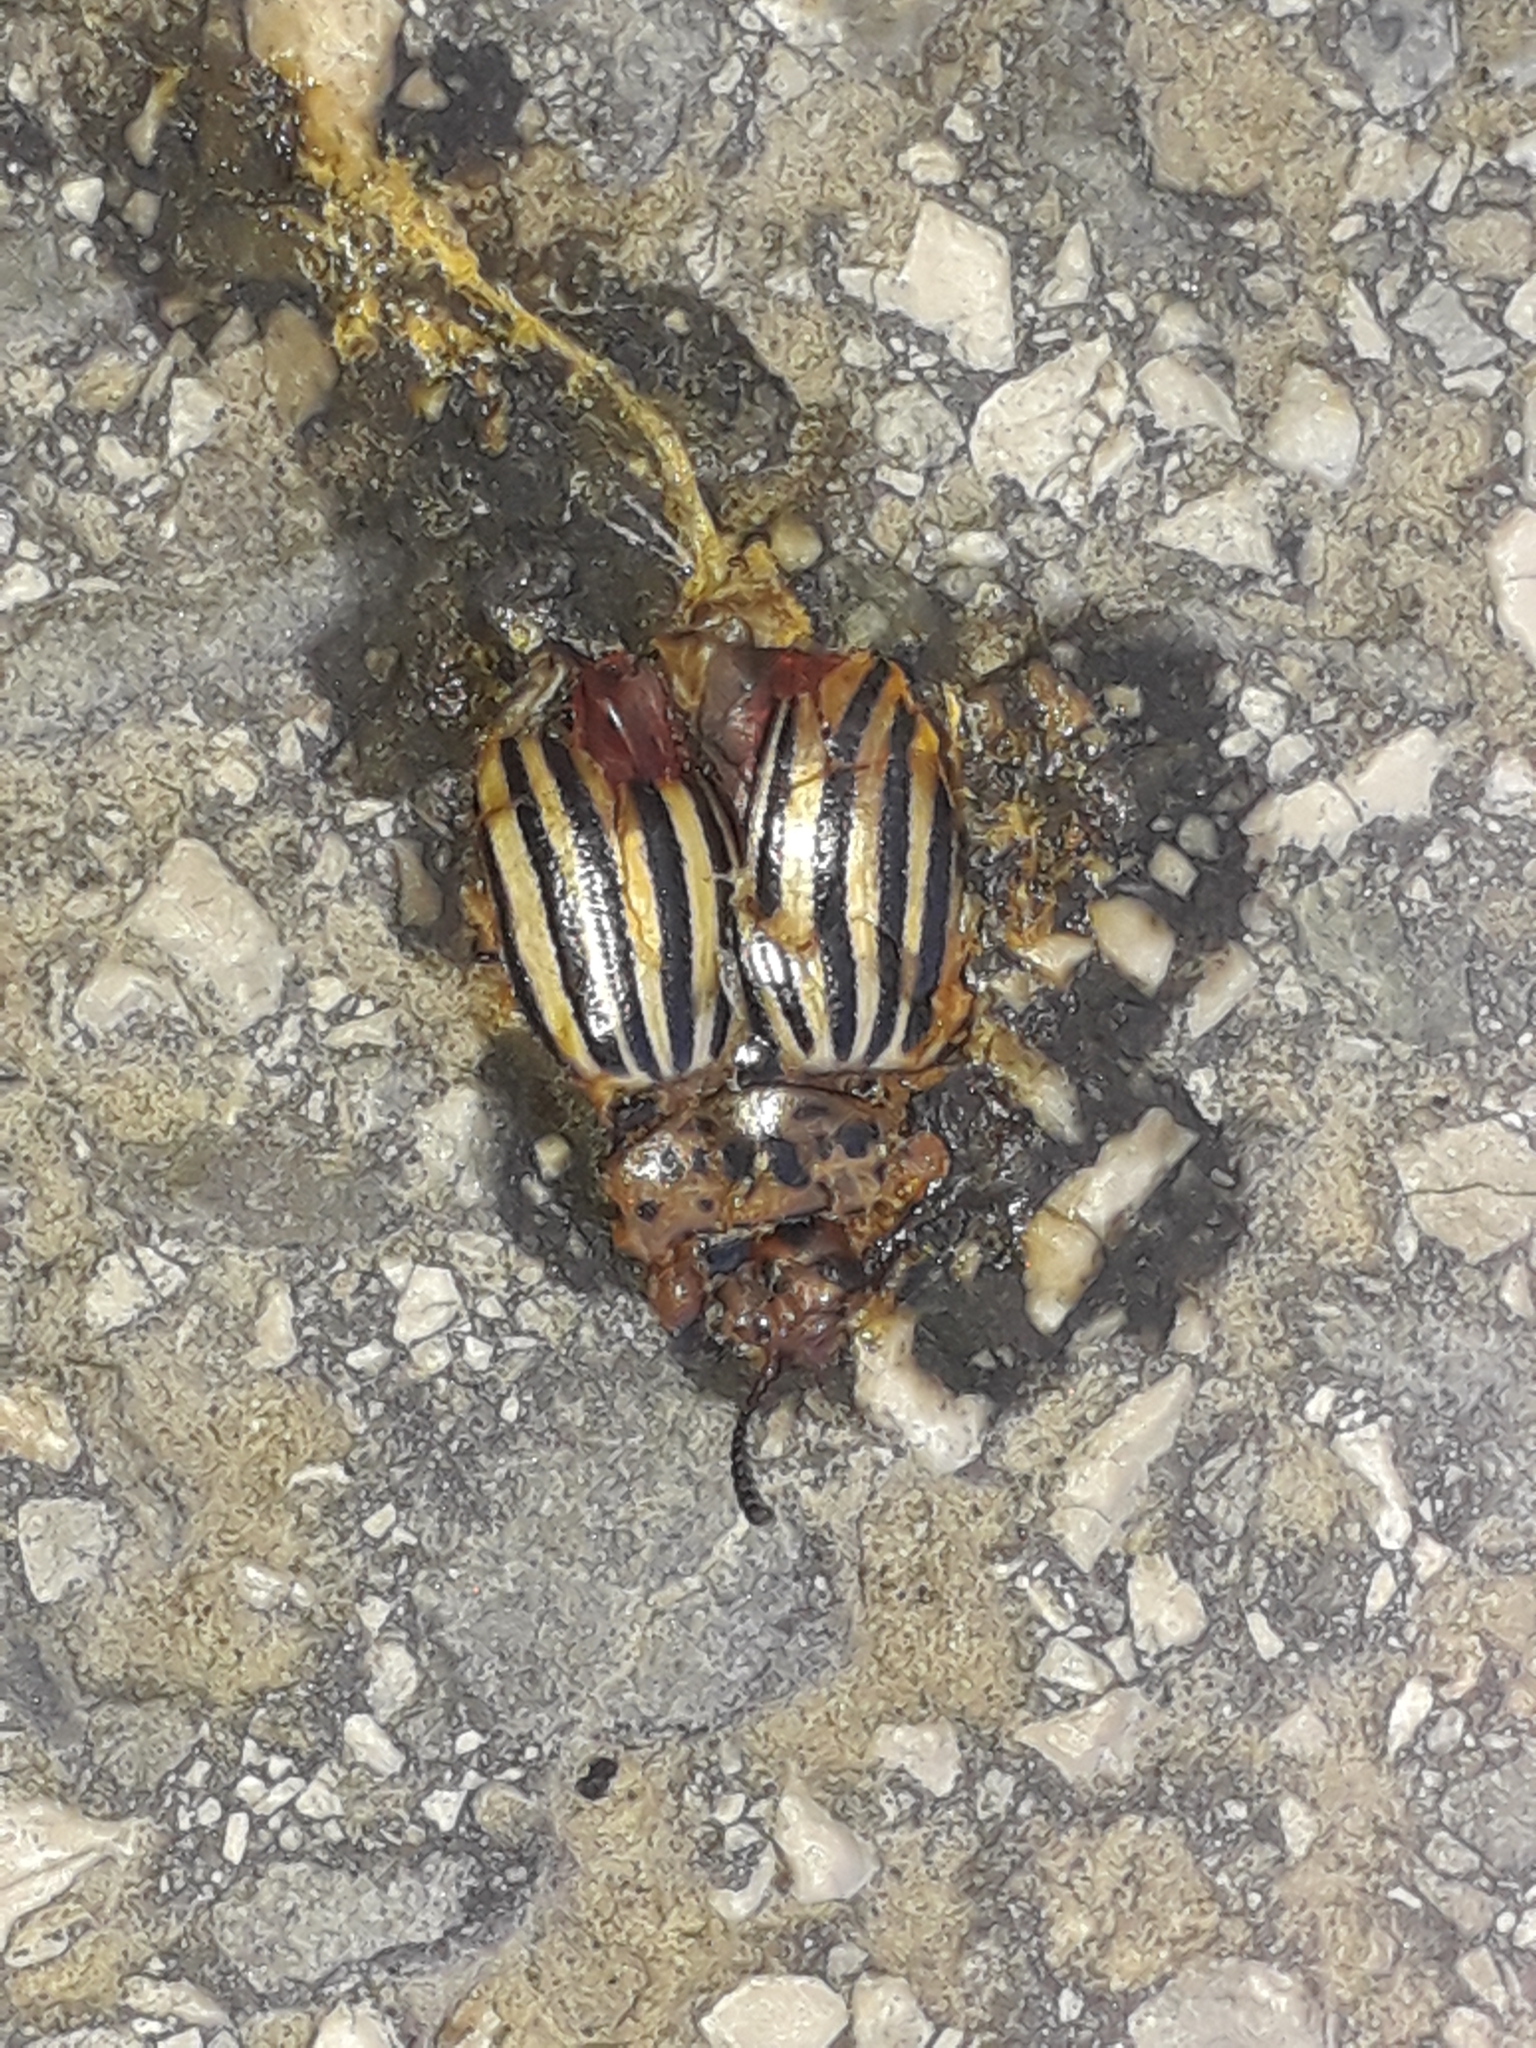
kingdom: Animalia
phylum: Arthropoda
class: Insecta
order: Coleoptera
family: Chrysomelidae
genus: Leptinotarsa
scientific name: Leptinotarsa decemlineata
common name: Colorado potato beetle
